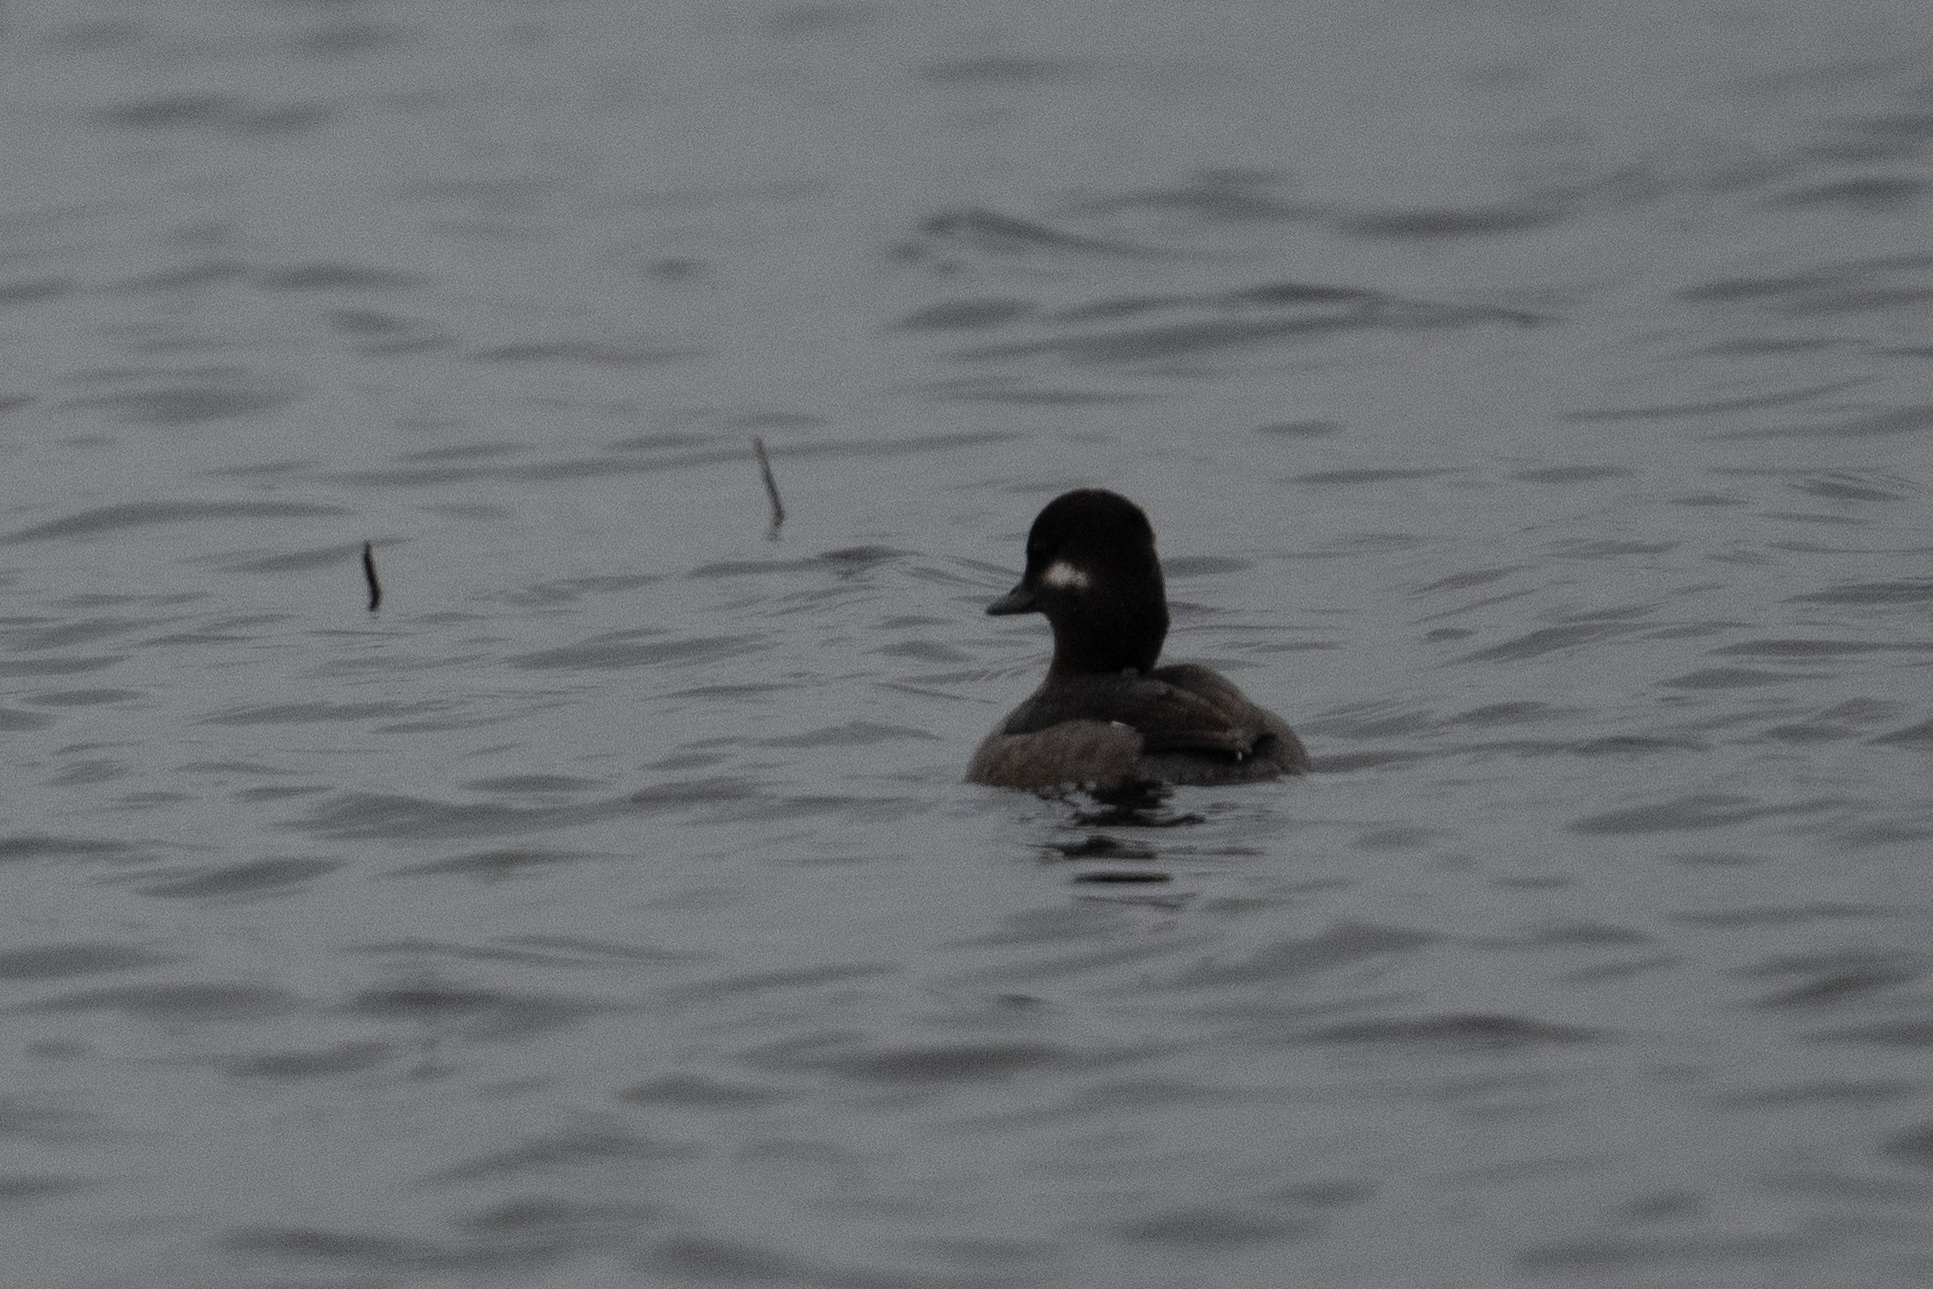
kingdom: Animalia
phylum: Chordata
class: Aves
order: Anseriformes
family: Anatidae
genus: Bucephala
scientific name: Bucephala albeola
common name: Bufflehead
